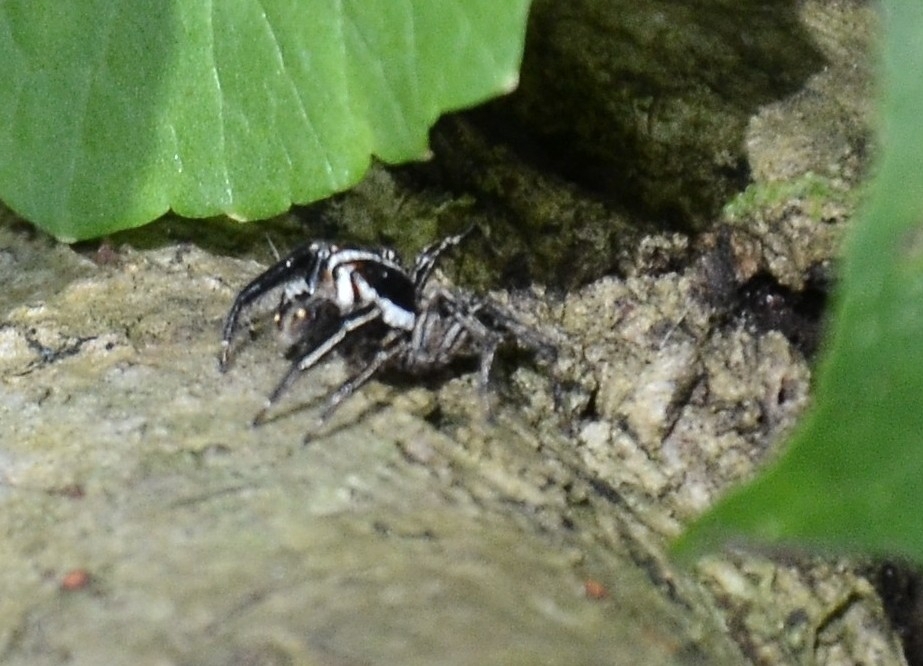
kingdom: Animalia
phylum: Arthropoda
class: Arachnida
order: Araneae
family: Salticidae
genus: Plexippus
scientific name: Plexippus petersi
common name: Jumping spider
